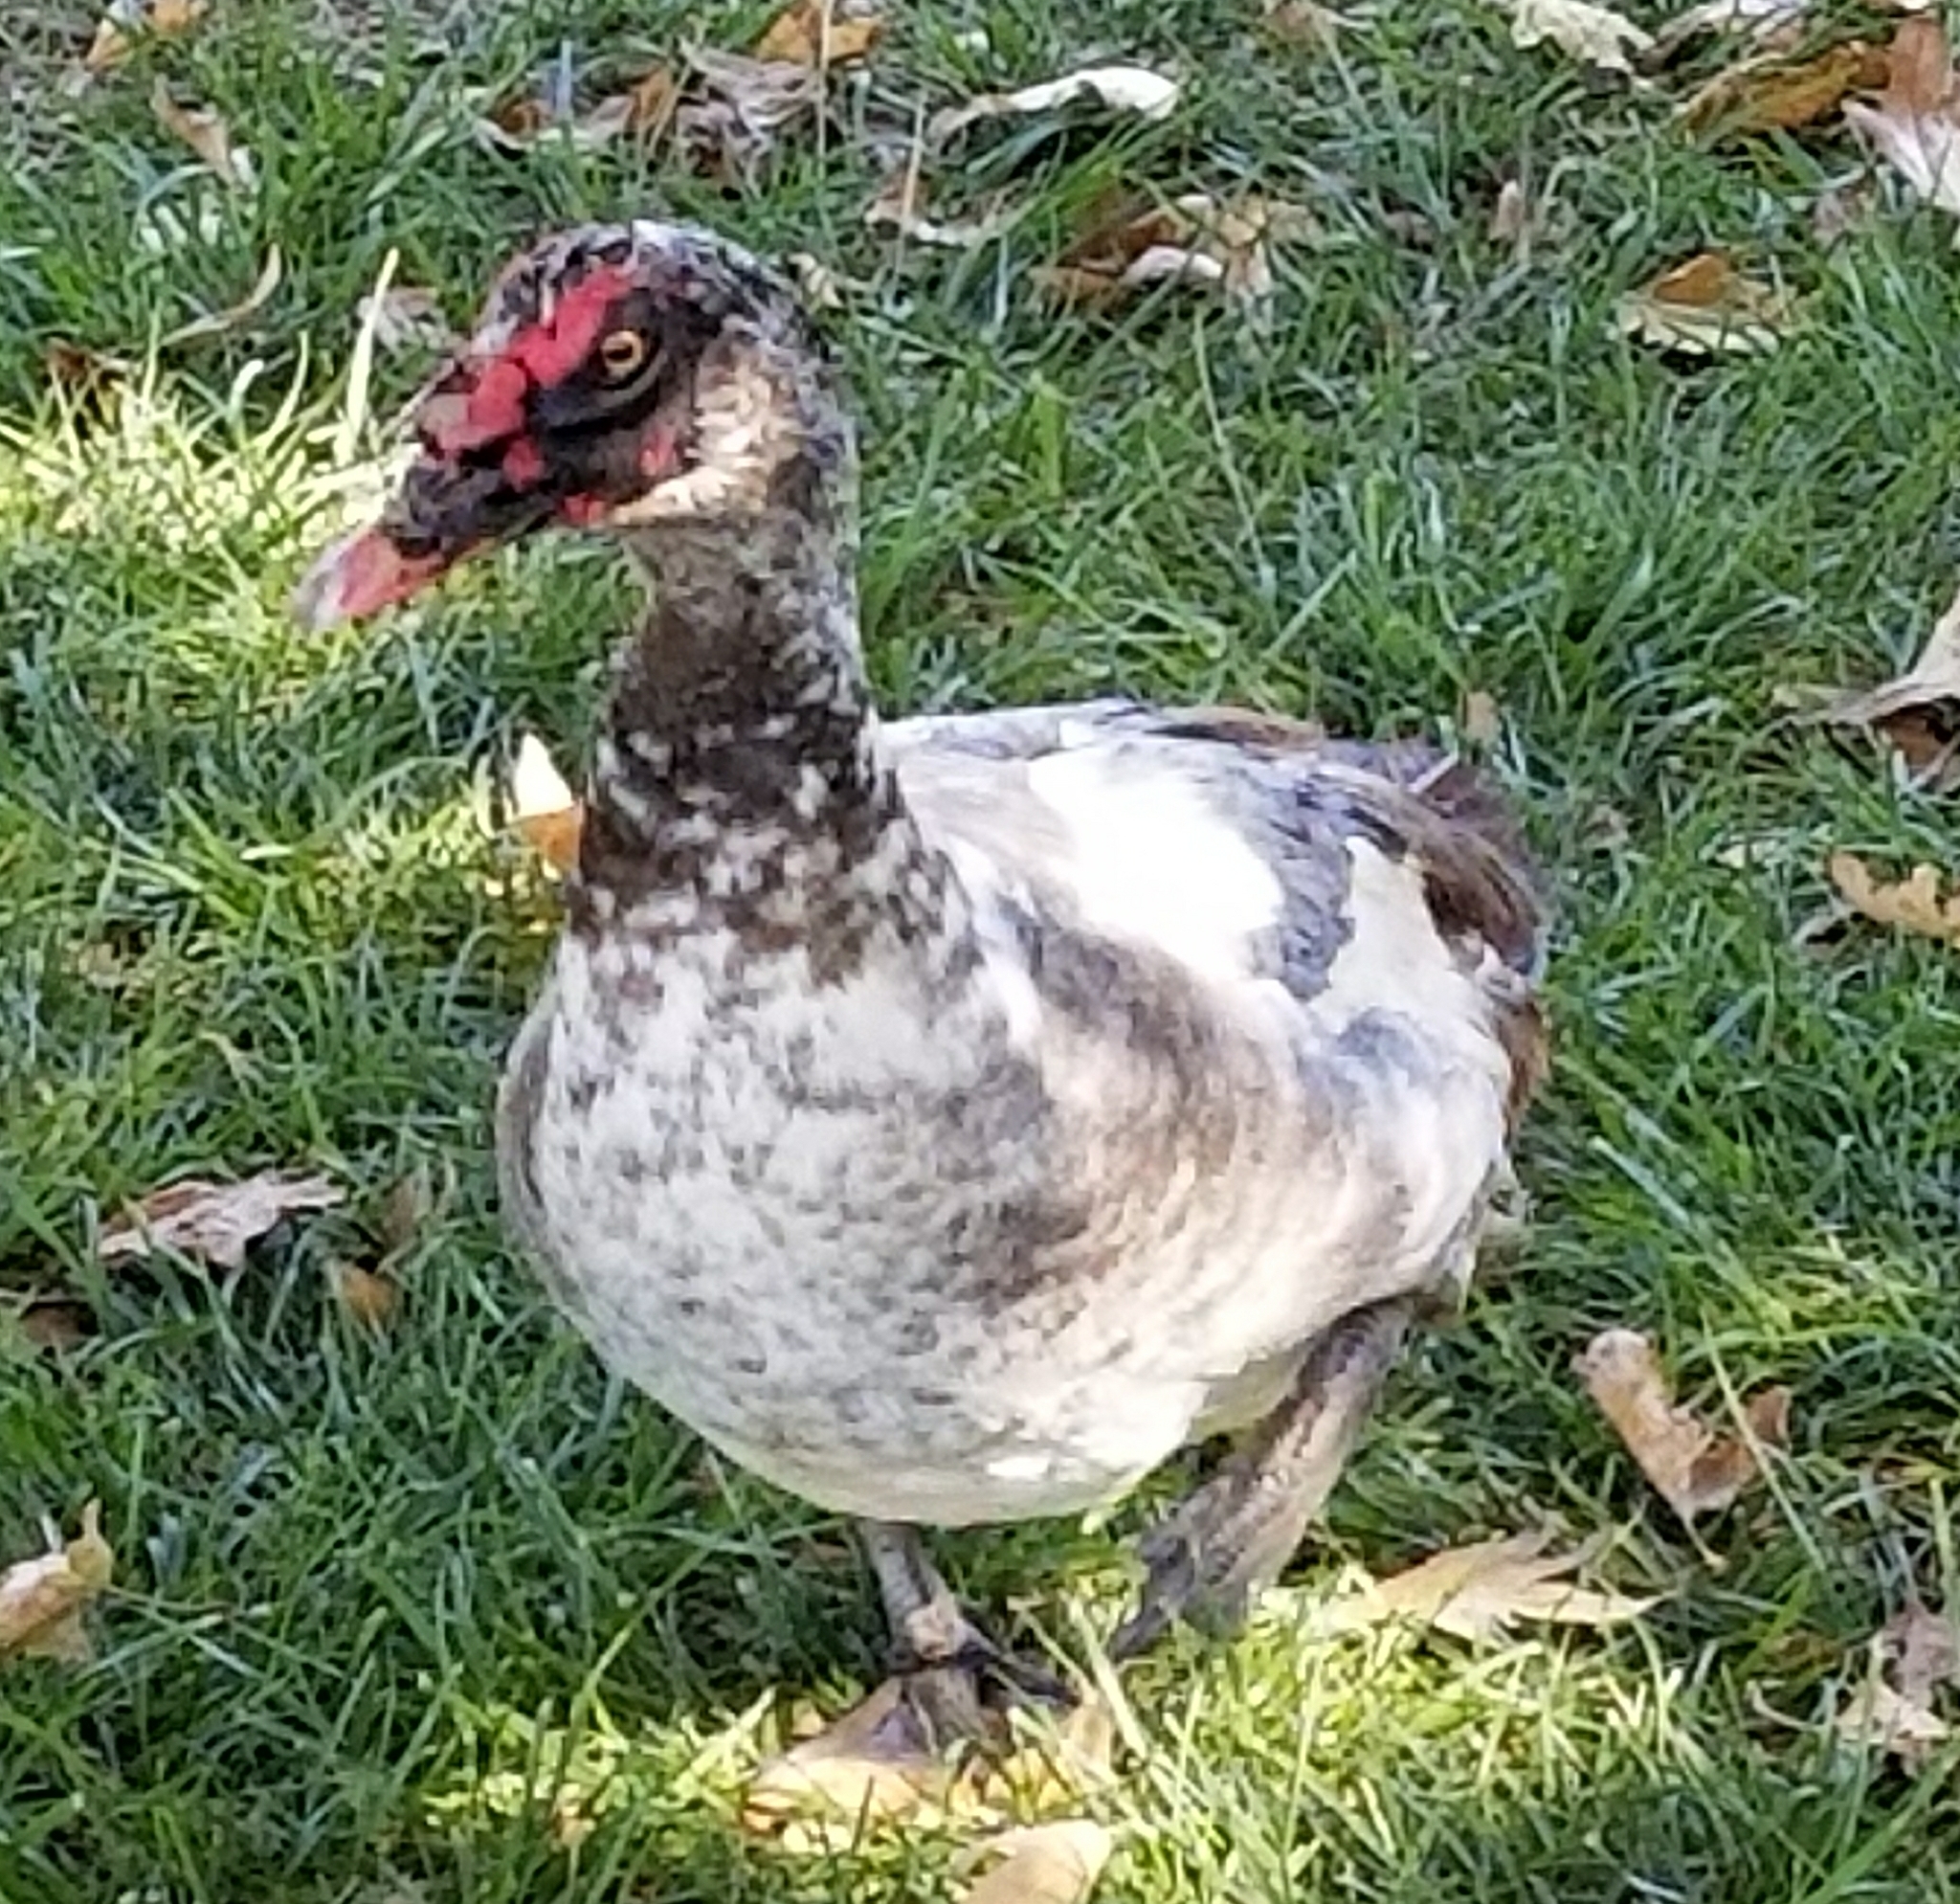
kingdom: Animalia
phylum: Chordata
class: Aves
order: Anseriformes
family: Anatidae
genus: Cairina
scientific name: Cairina moschata
